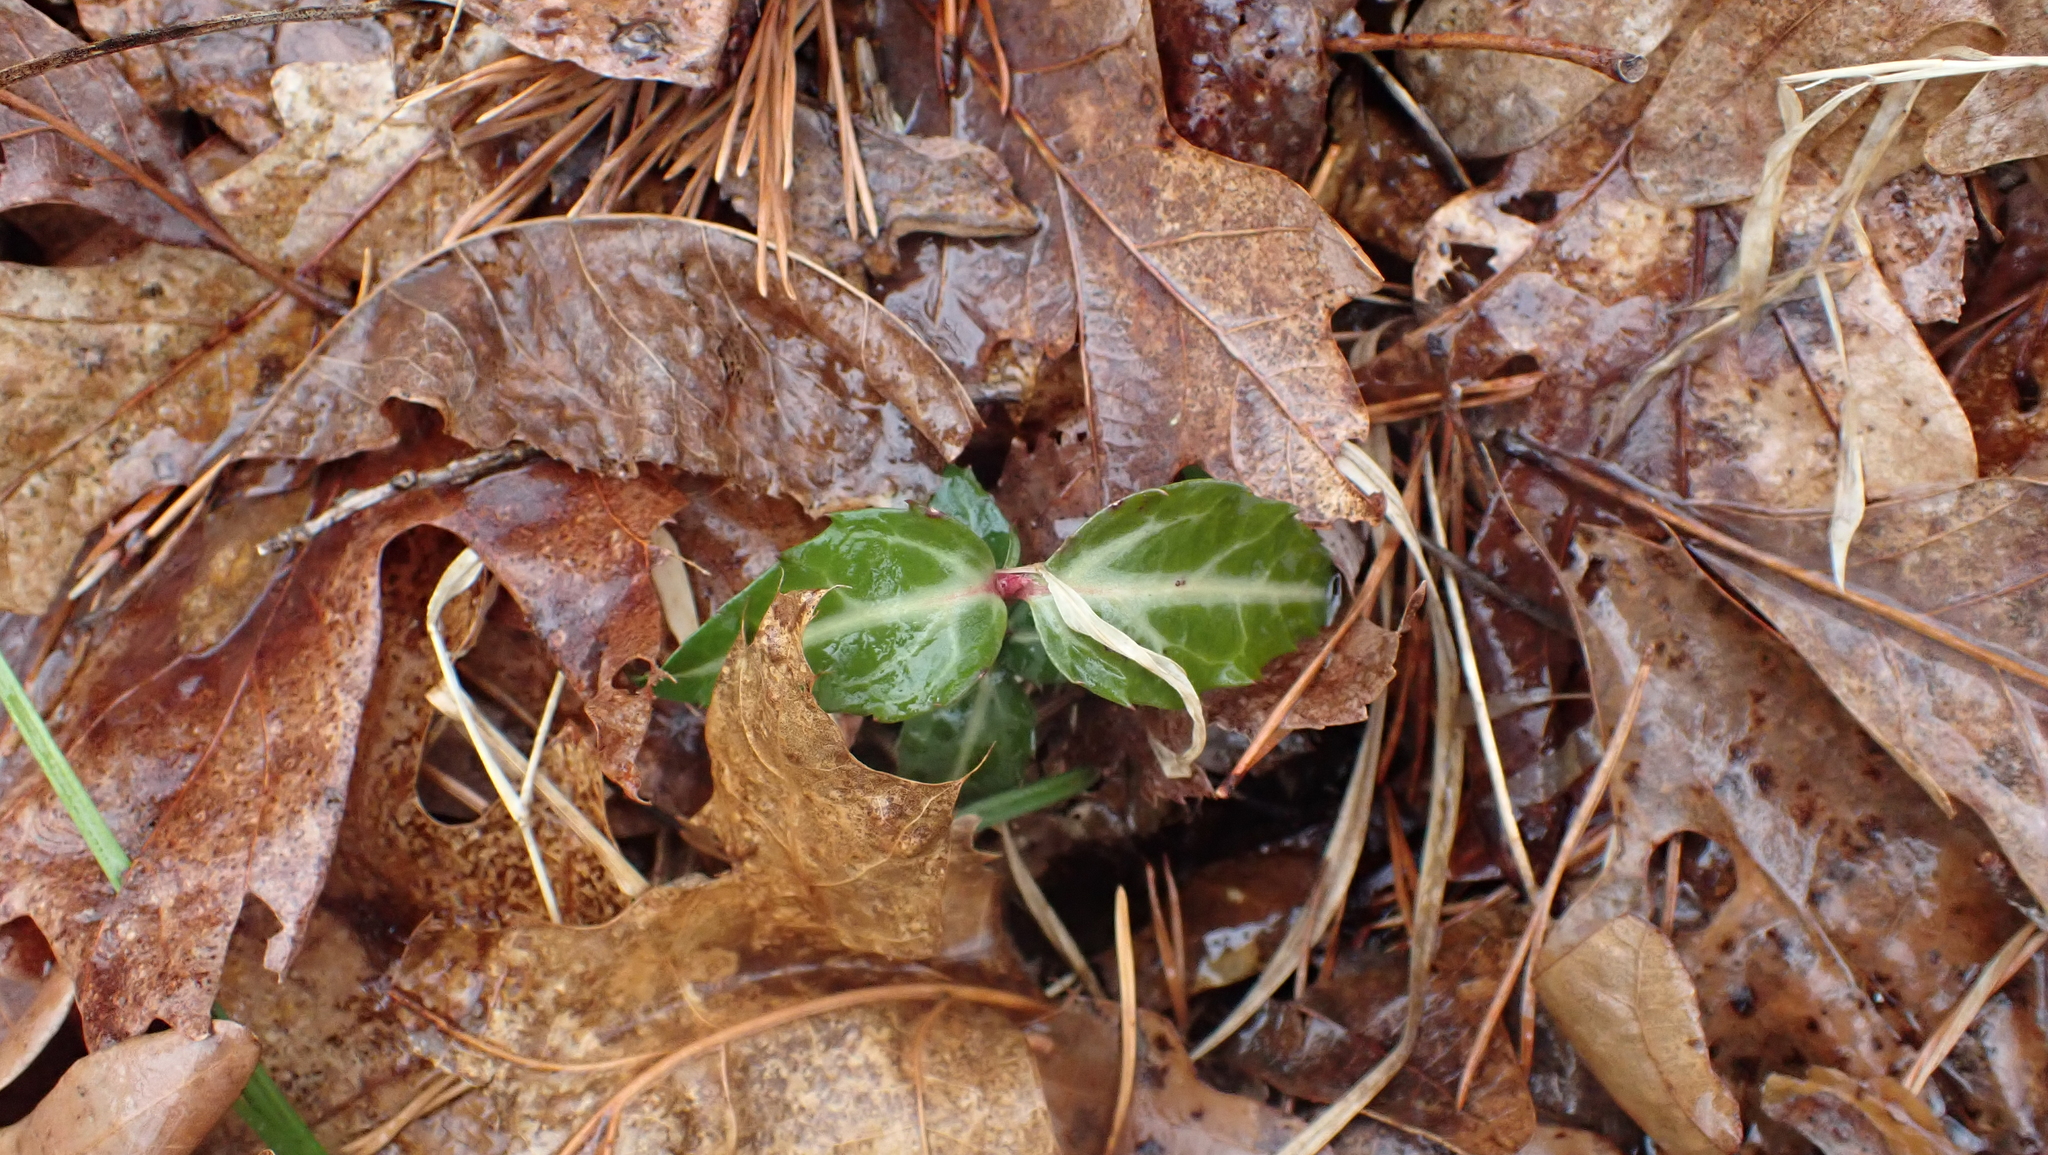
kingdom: Plantae
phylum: Tracheophyta
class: Magnoliopsida
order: Ericales
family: Ericaceae
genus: Chimaphila
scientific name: Chimaphila maculata
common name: Spotted pipsissewa
